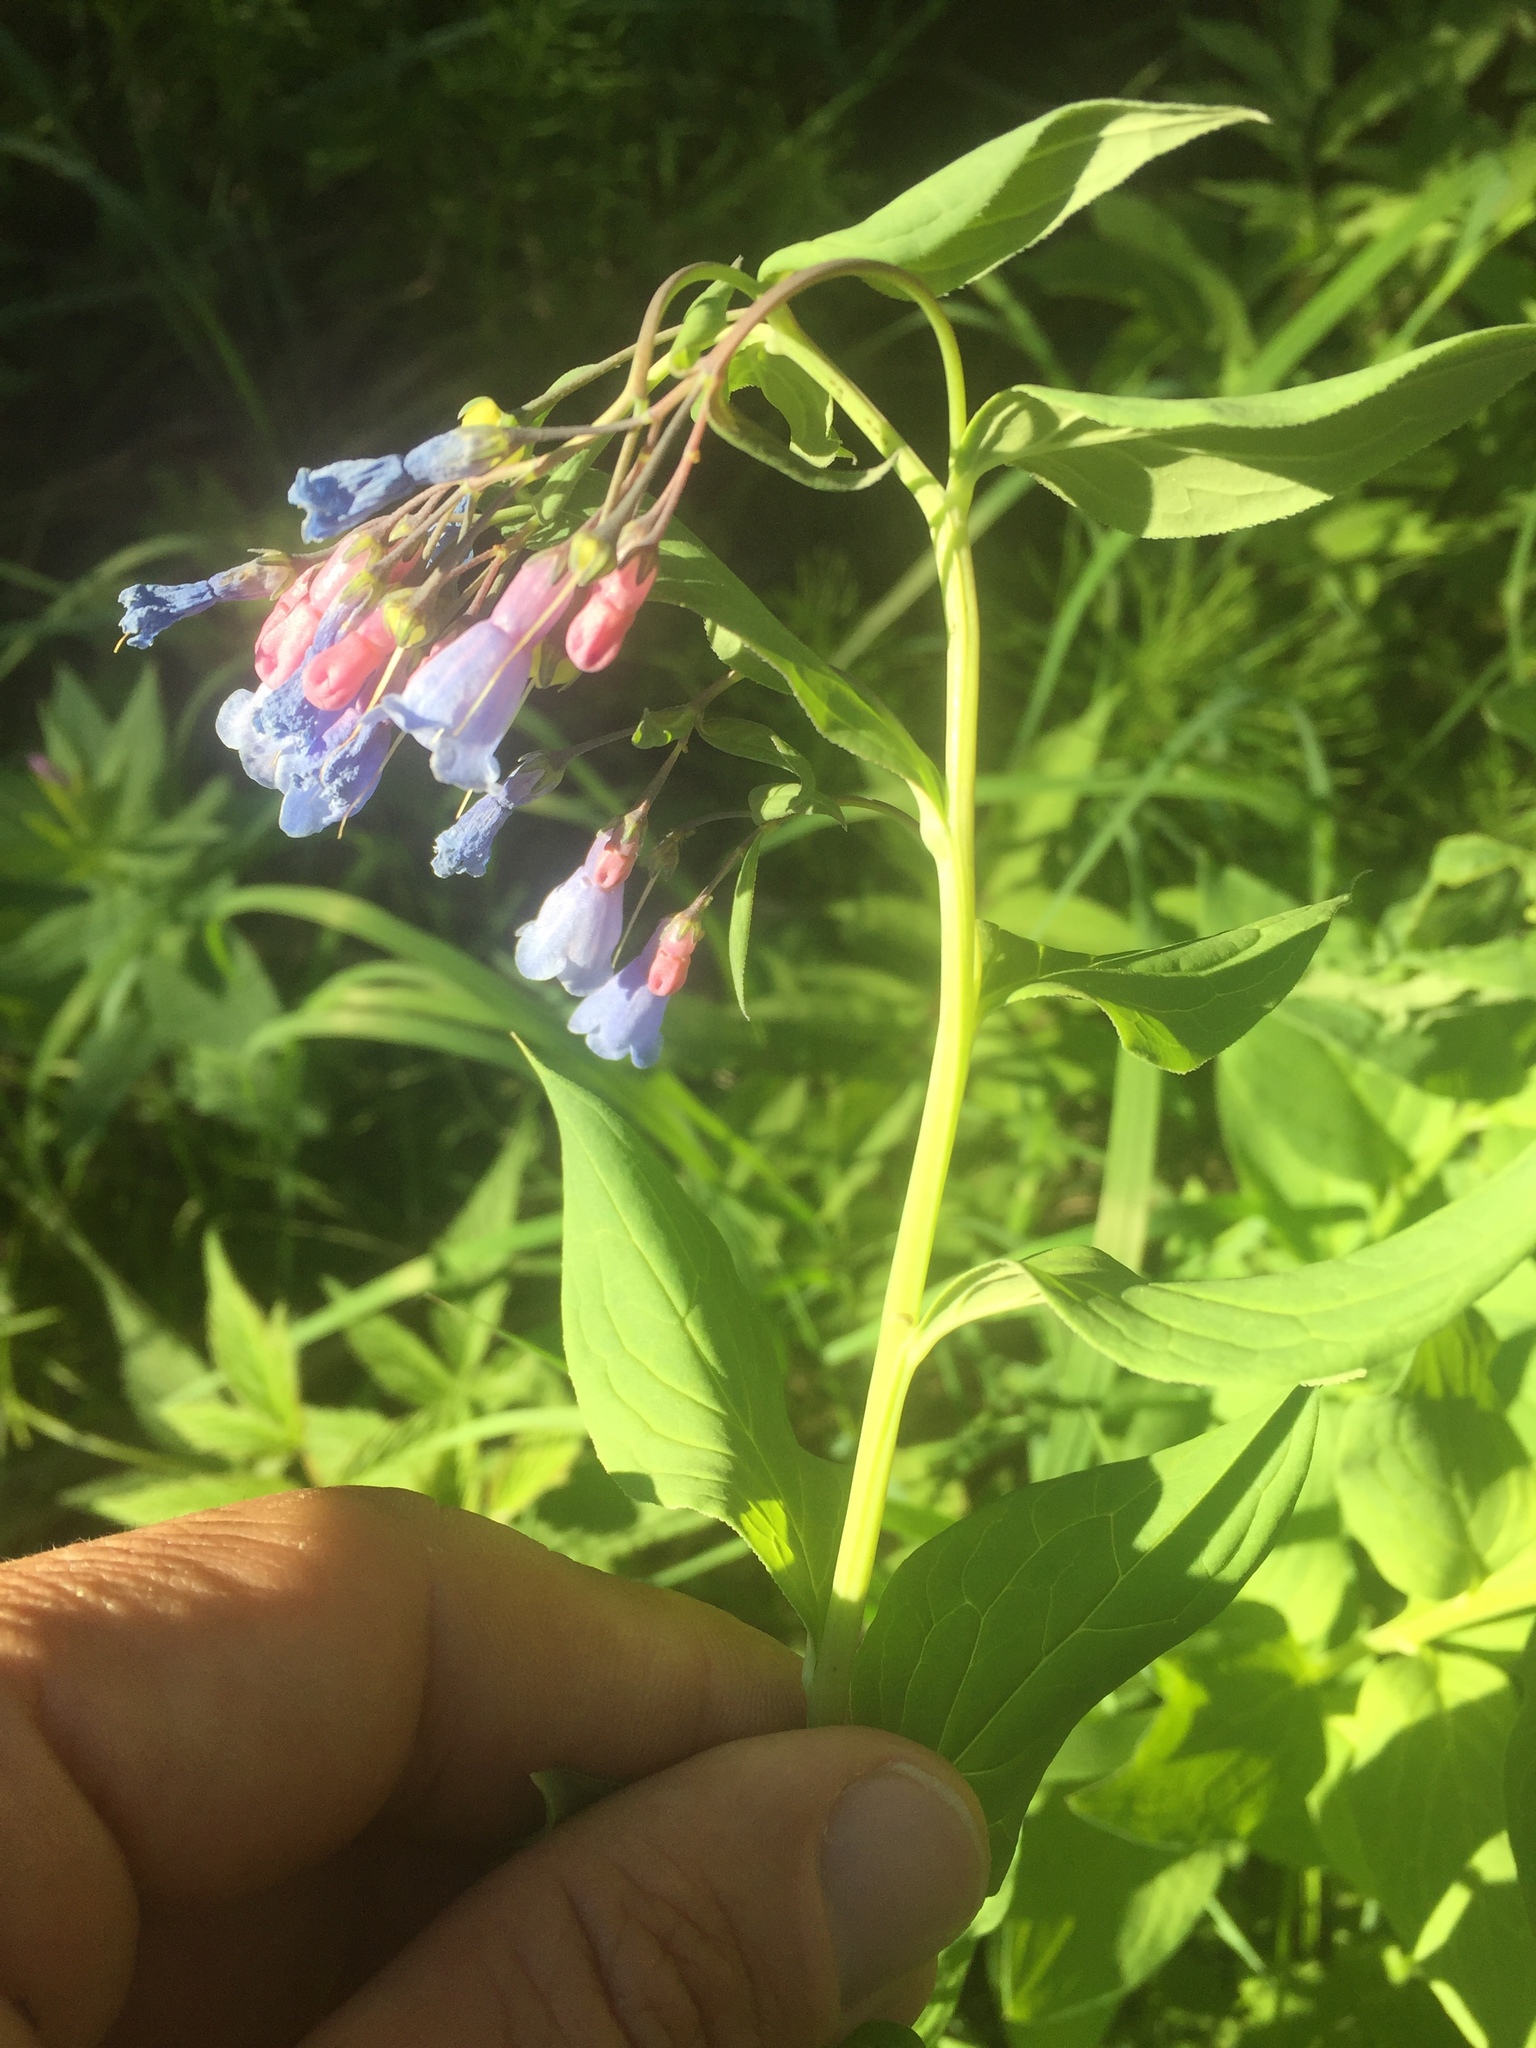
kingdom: Plantae
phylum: Tracheophyta
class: Magnoliopsida
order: Boraginales
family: Boraginaceae
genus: Mertensia
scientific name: Mertensia ciliata
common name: Tall chiming-bells
